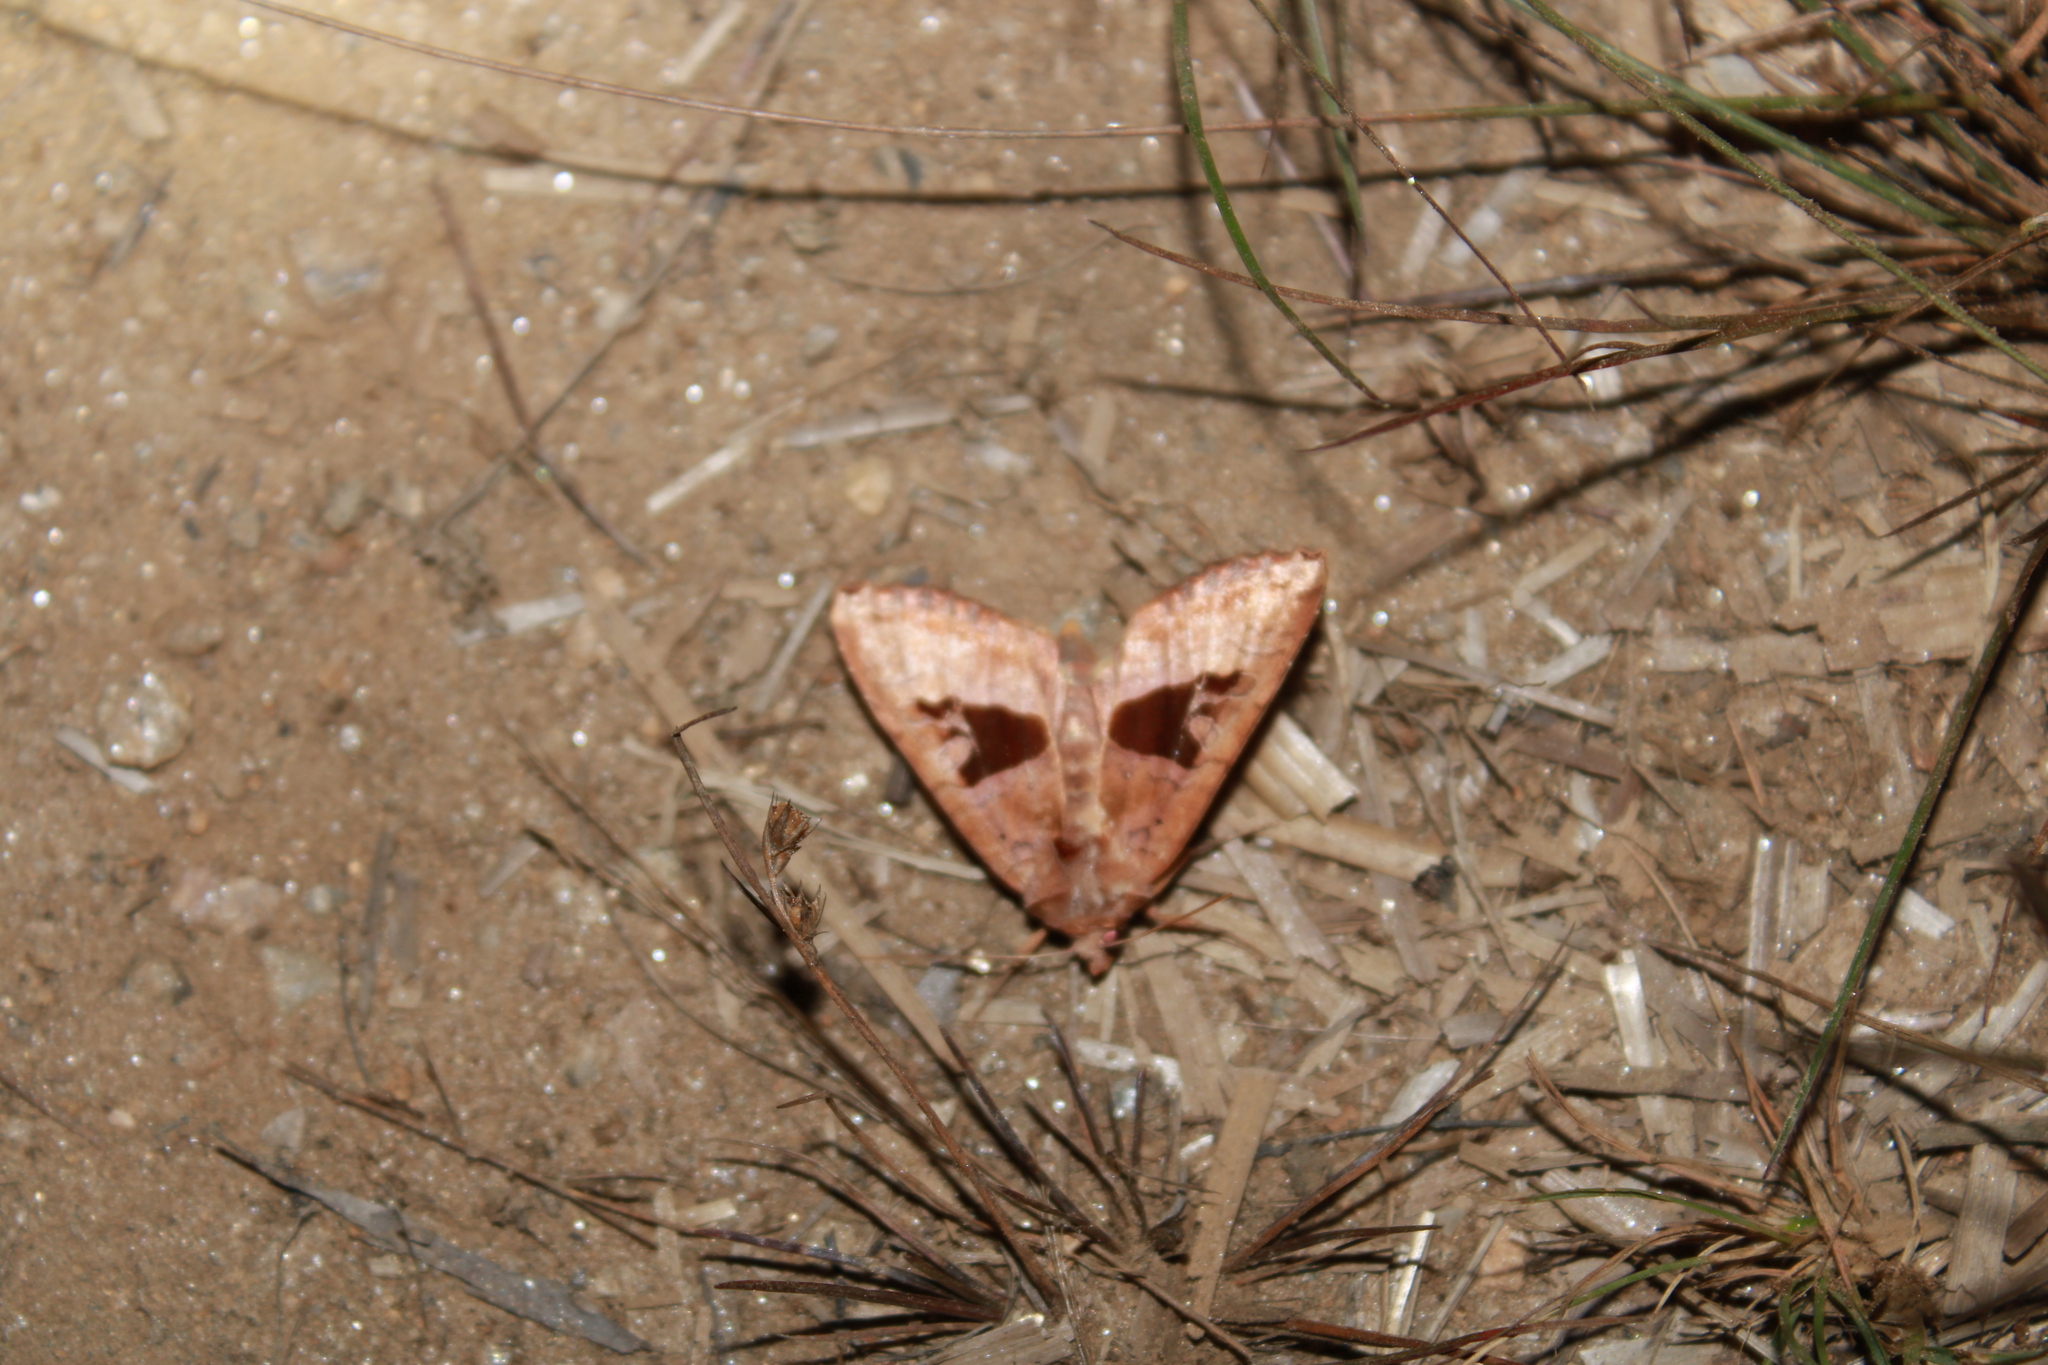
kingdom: Animalia
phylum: Arthropoda
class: Insecta
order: Lepidoptera
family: Noctuidae
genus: Phlogophora
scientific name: Phlogophora periculosa
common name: Brown angle shades
